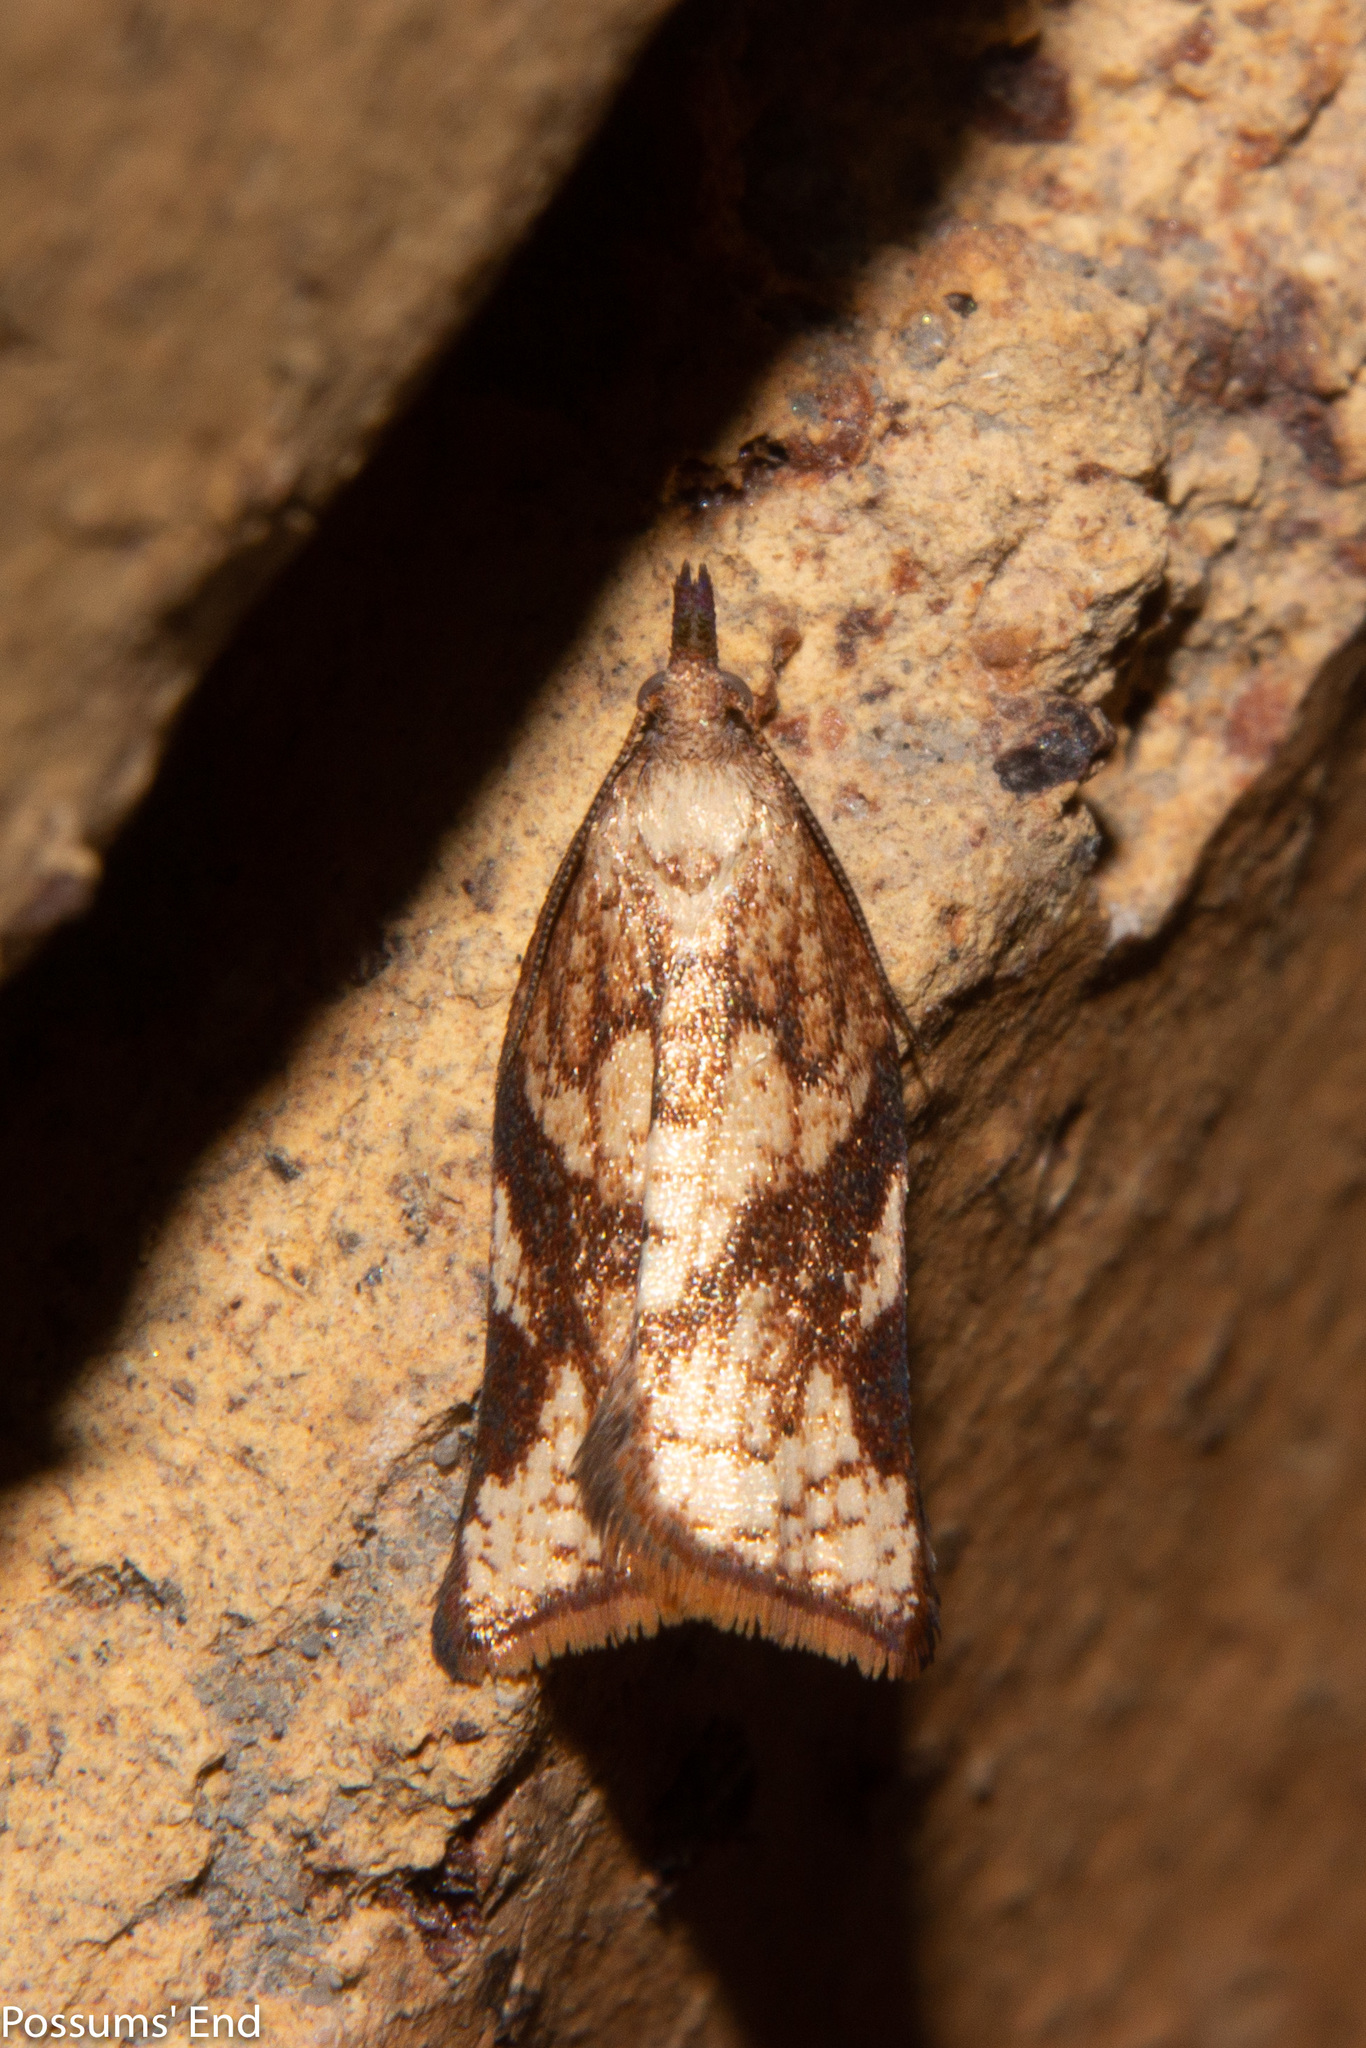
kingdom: Animalia
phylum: Arthropoda
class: Insecta
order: Lepidoptera
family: Tortricidae
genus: Catamacta
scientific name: Catamacta gavisana
